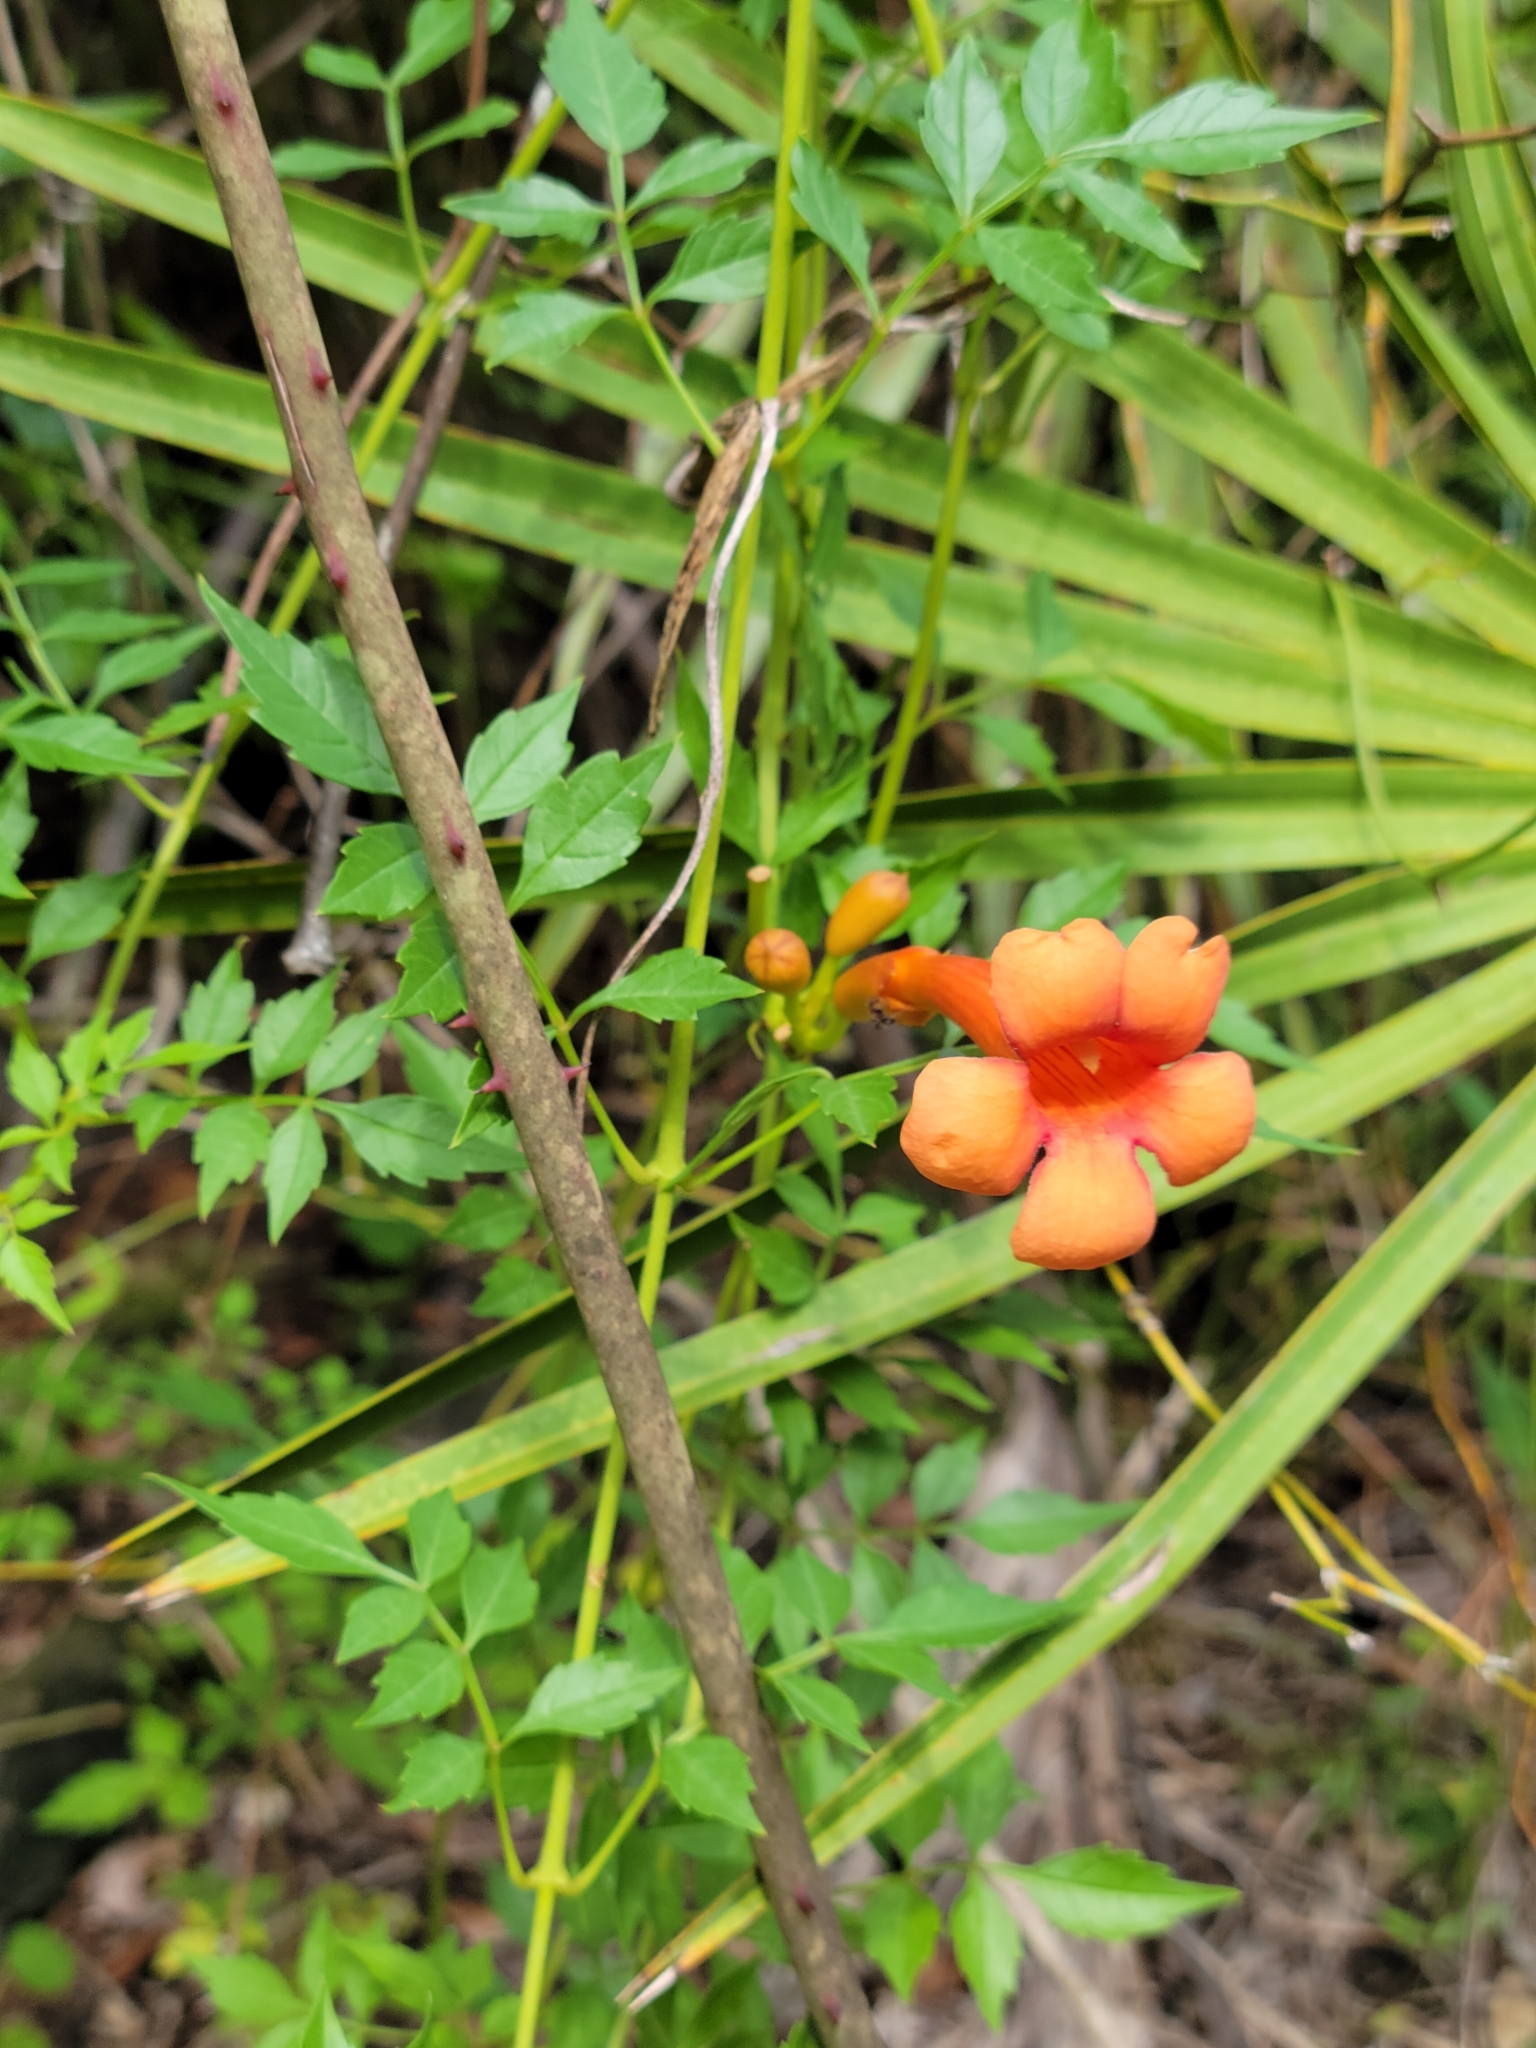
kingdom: Plantae
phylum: Tracheophyta
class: Magnoliopsida
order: Lamiales
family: Bignoniaceae
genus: Campsis
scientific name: Campsis radicans
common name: Trumpet-creeper
